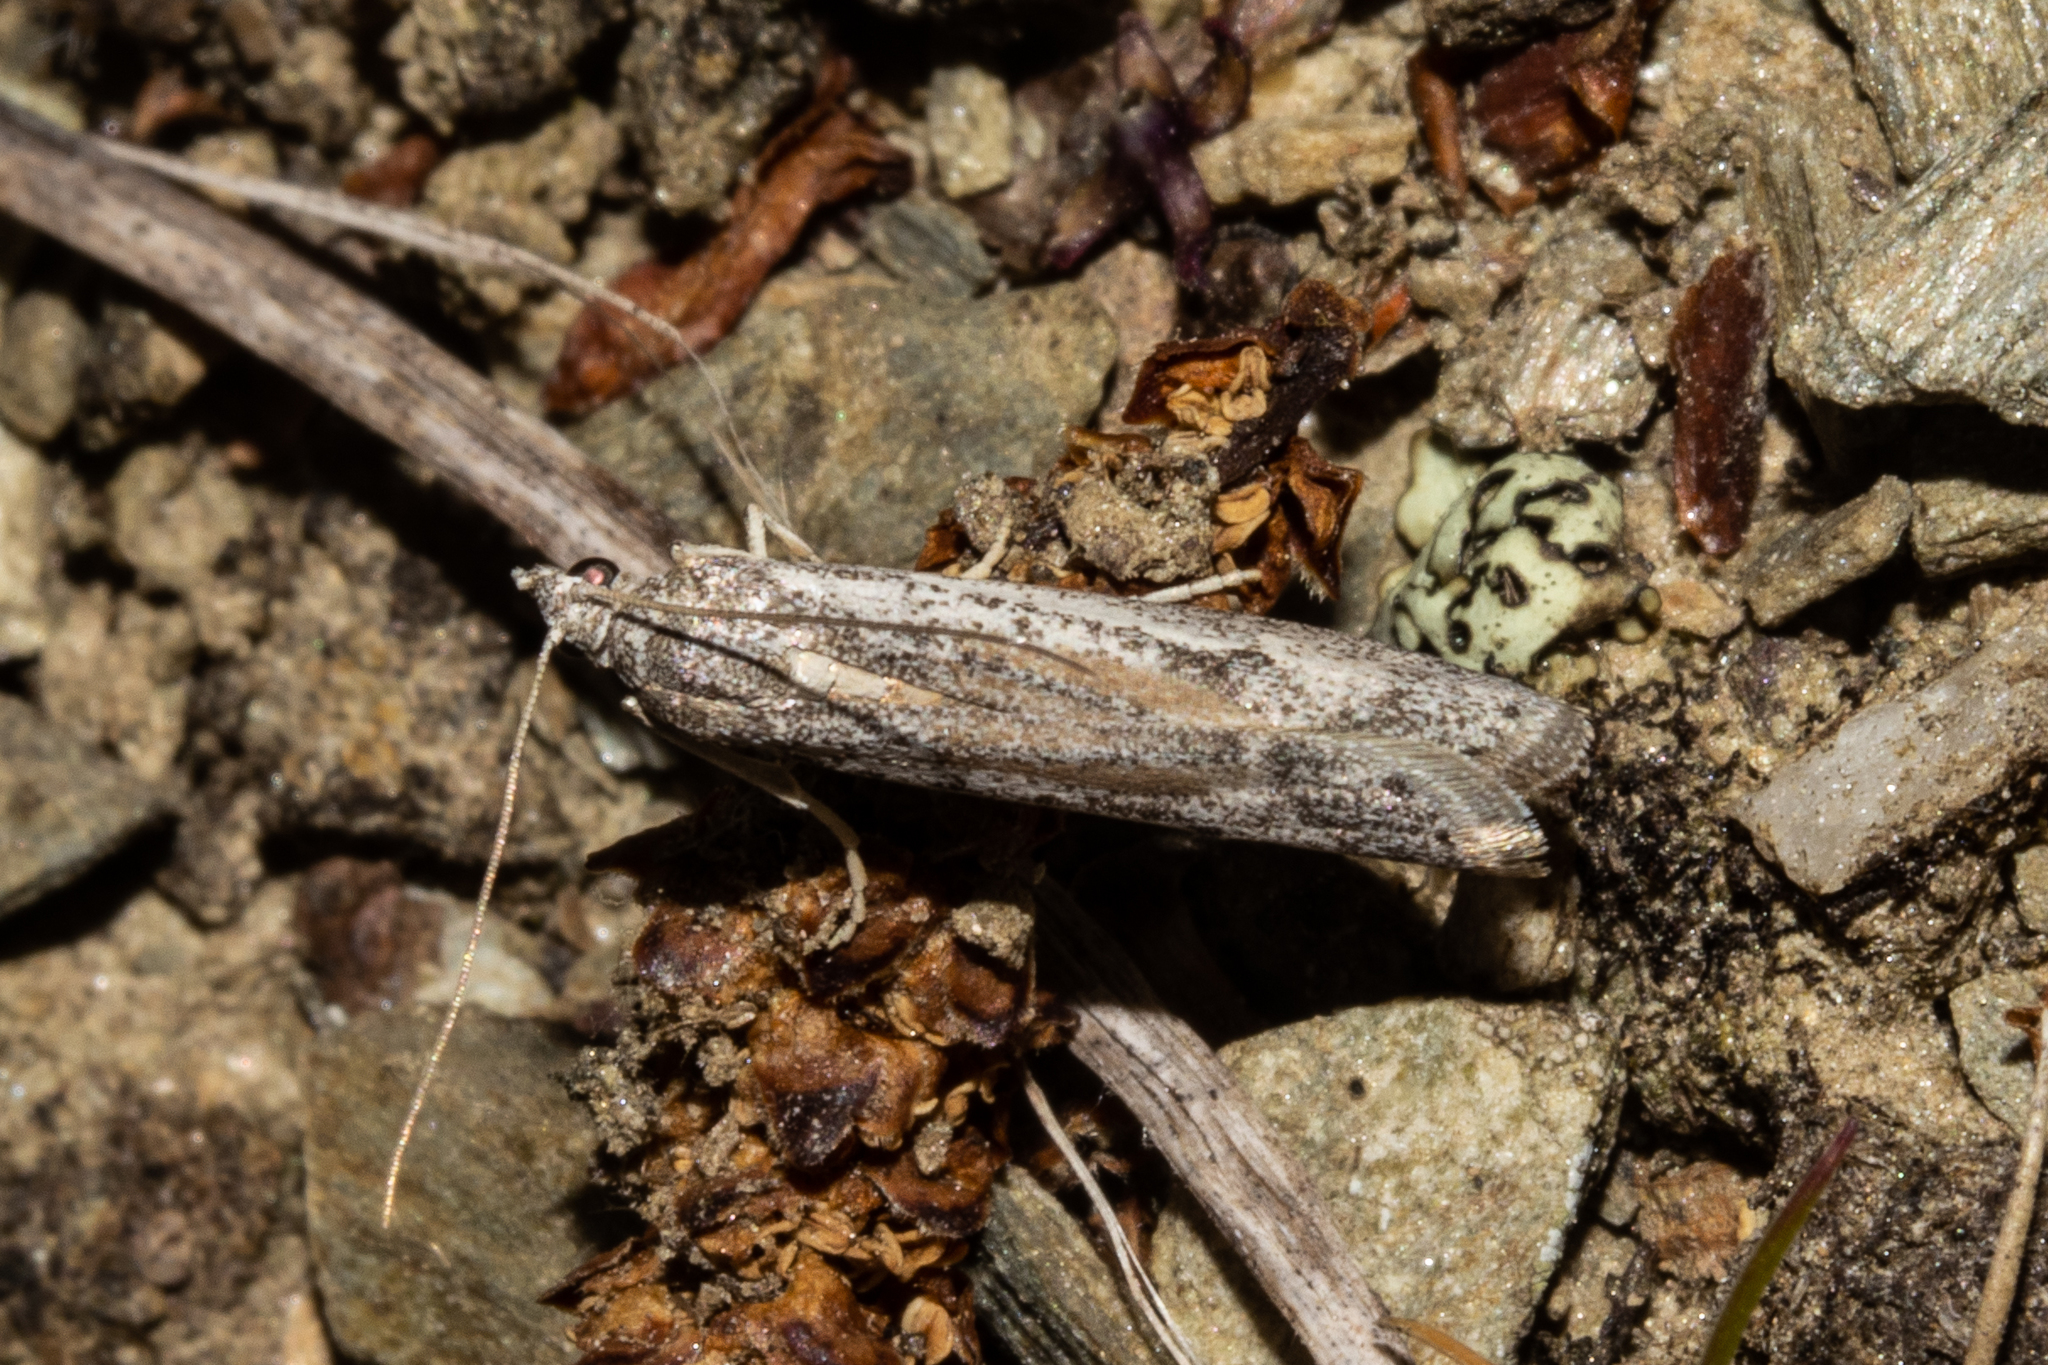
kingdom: Animalia
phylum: Arthropoda
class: Insecta
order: Lepidoptera
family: Pyralidae
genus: Patagoniodes
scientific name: Patagoniodes farinaria
